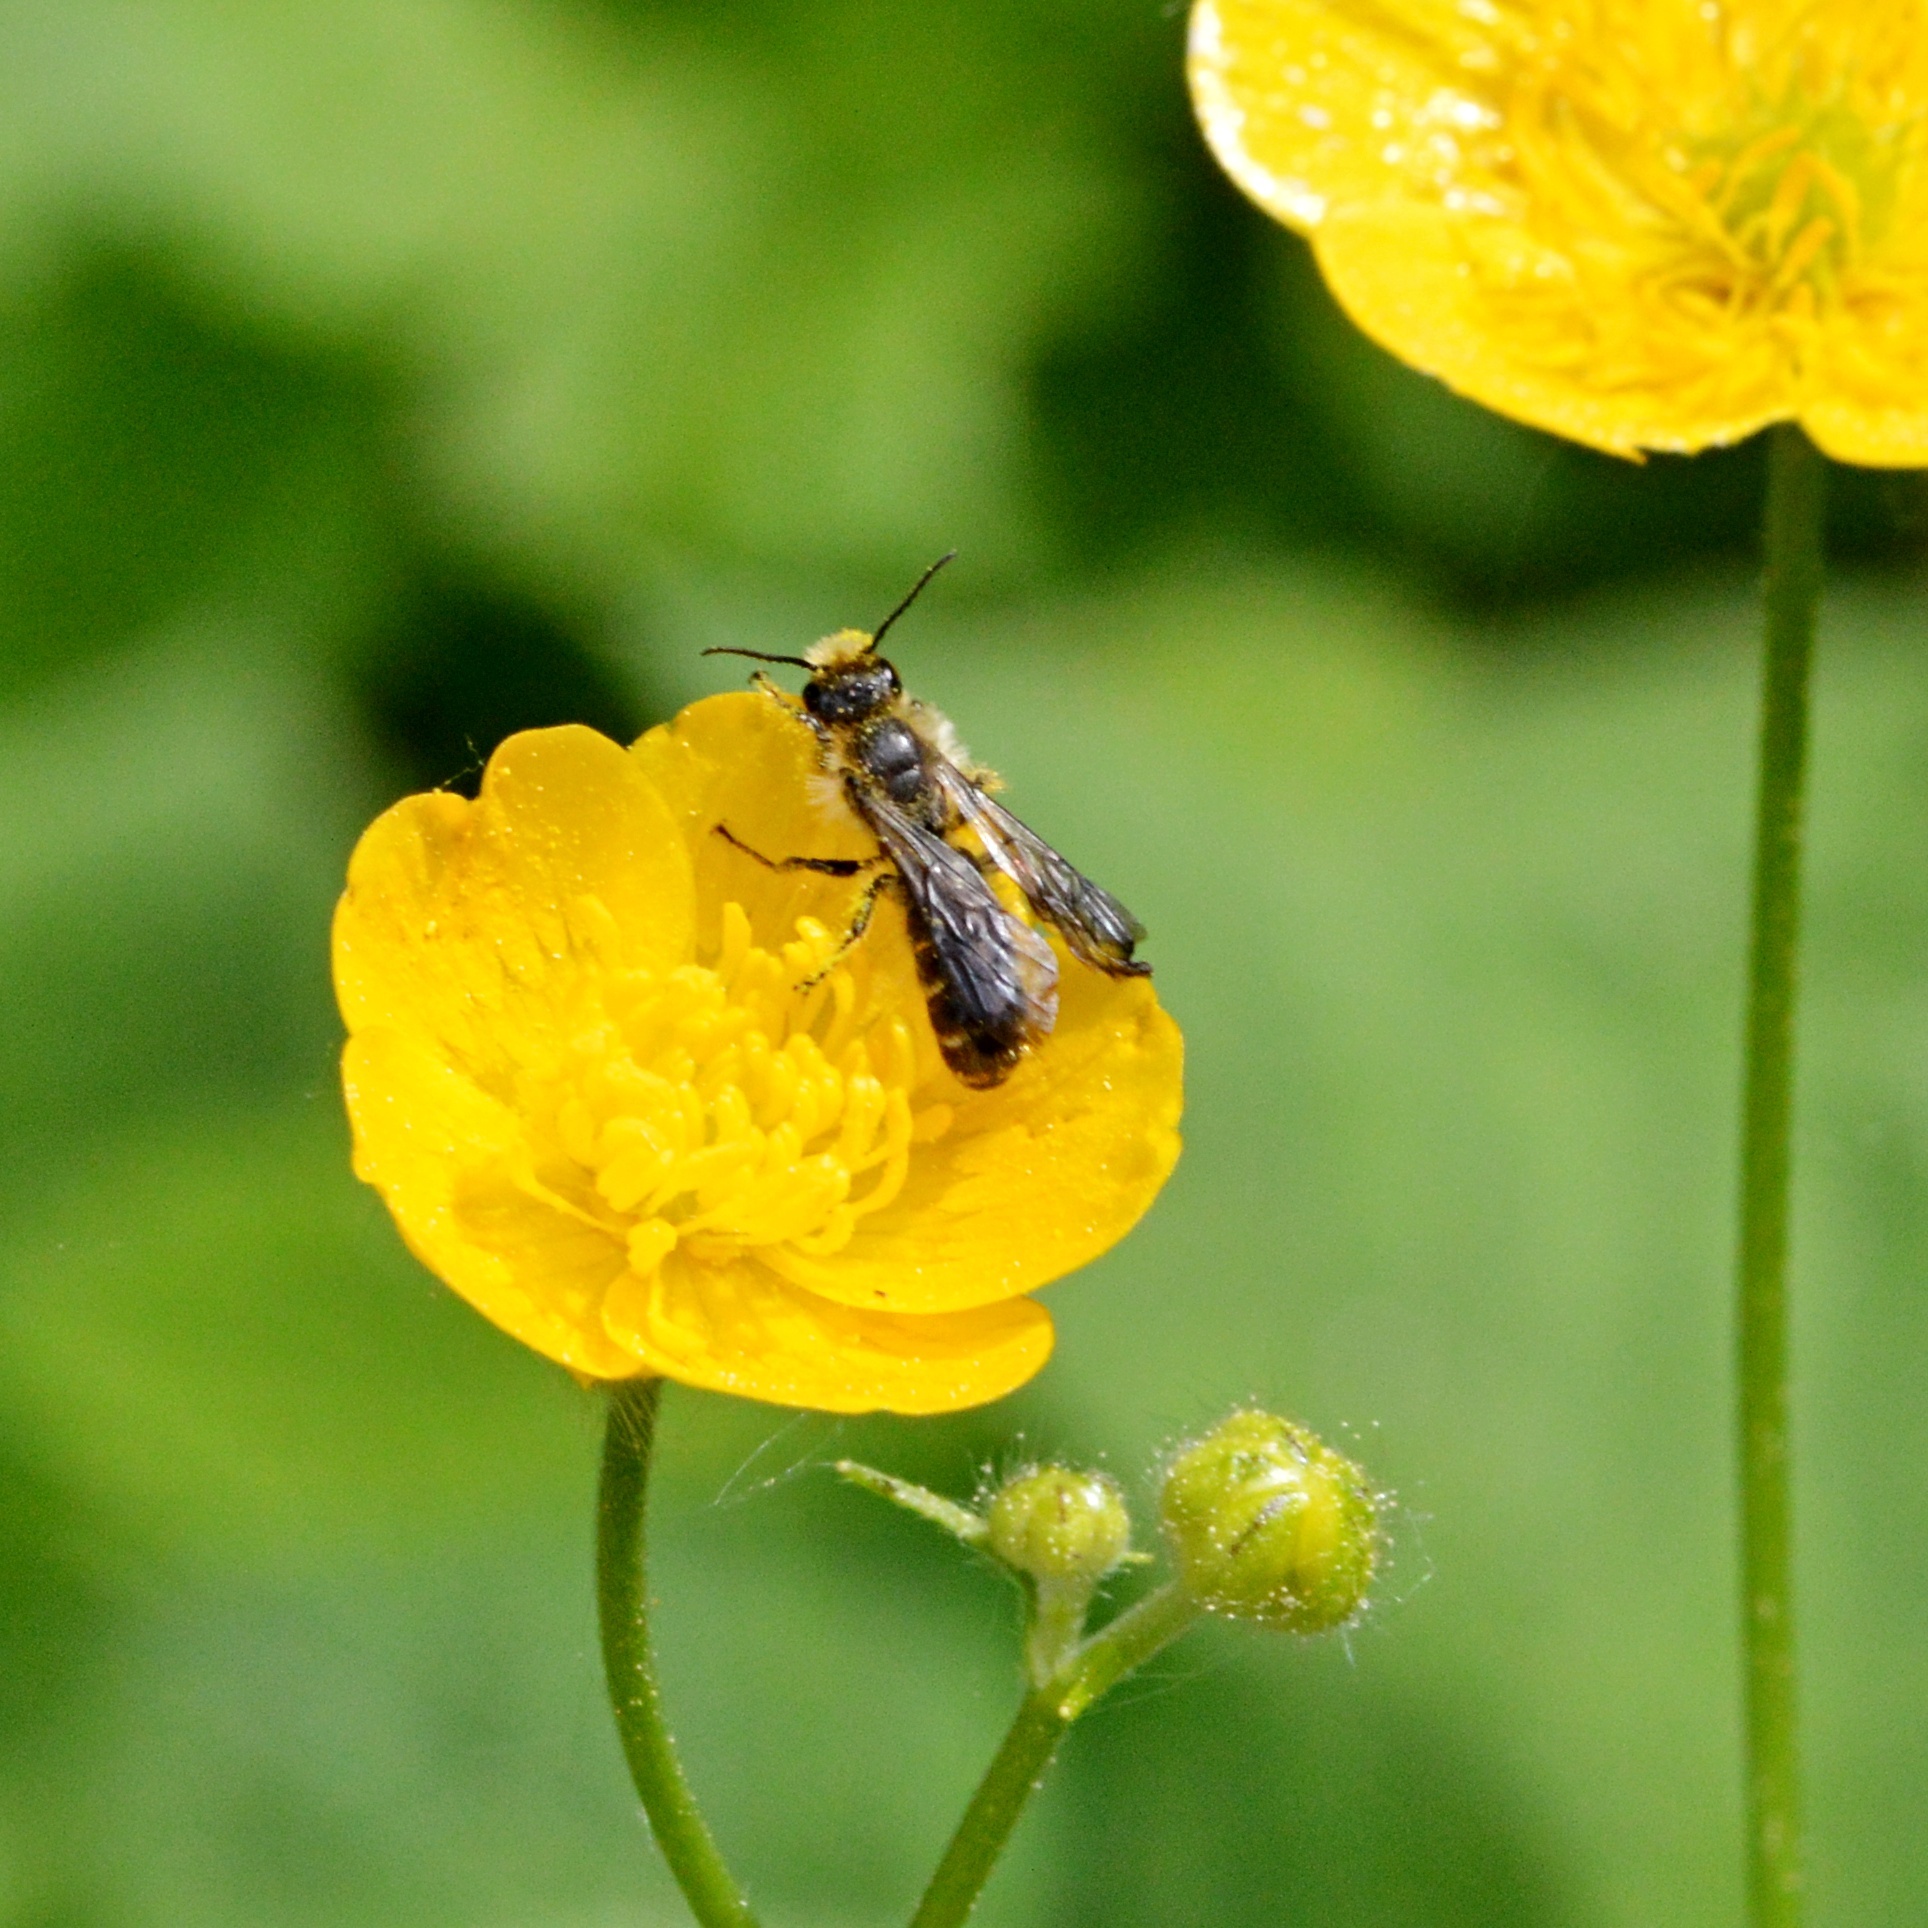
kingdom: Animalia
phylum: Arthropoda
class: Insecta
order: Hymenoptera
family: Megachilidae
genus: Chelostoma
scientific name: Chelostoma florisomne
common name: Sleepy carpenter bee
